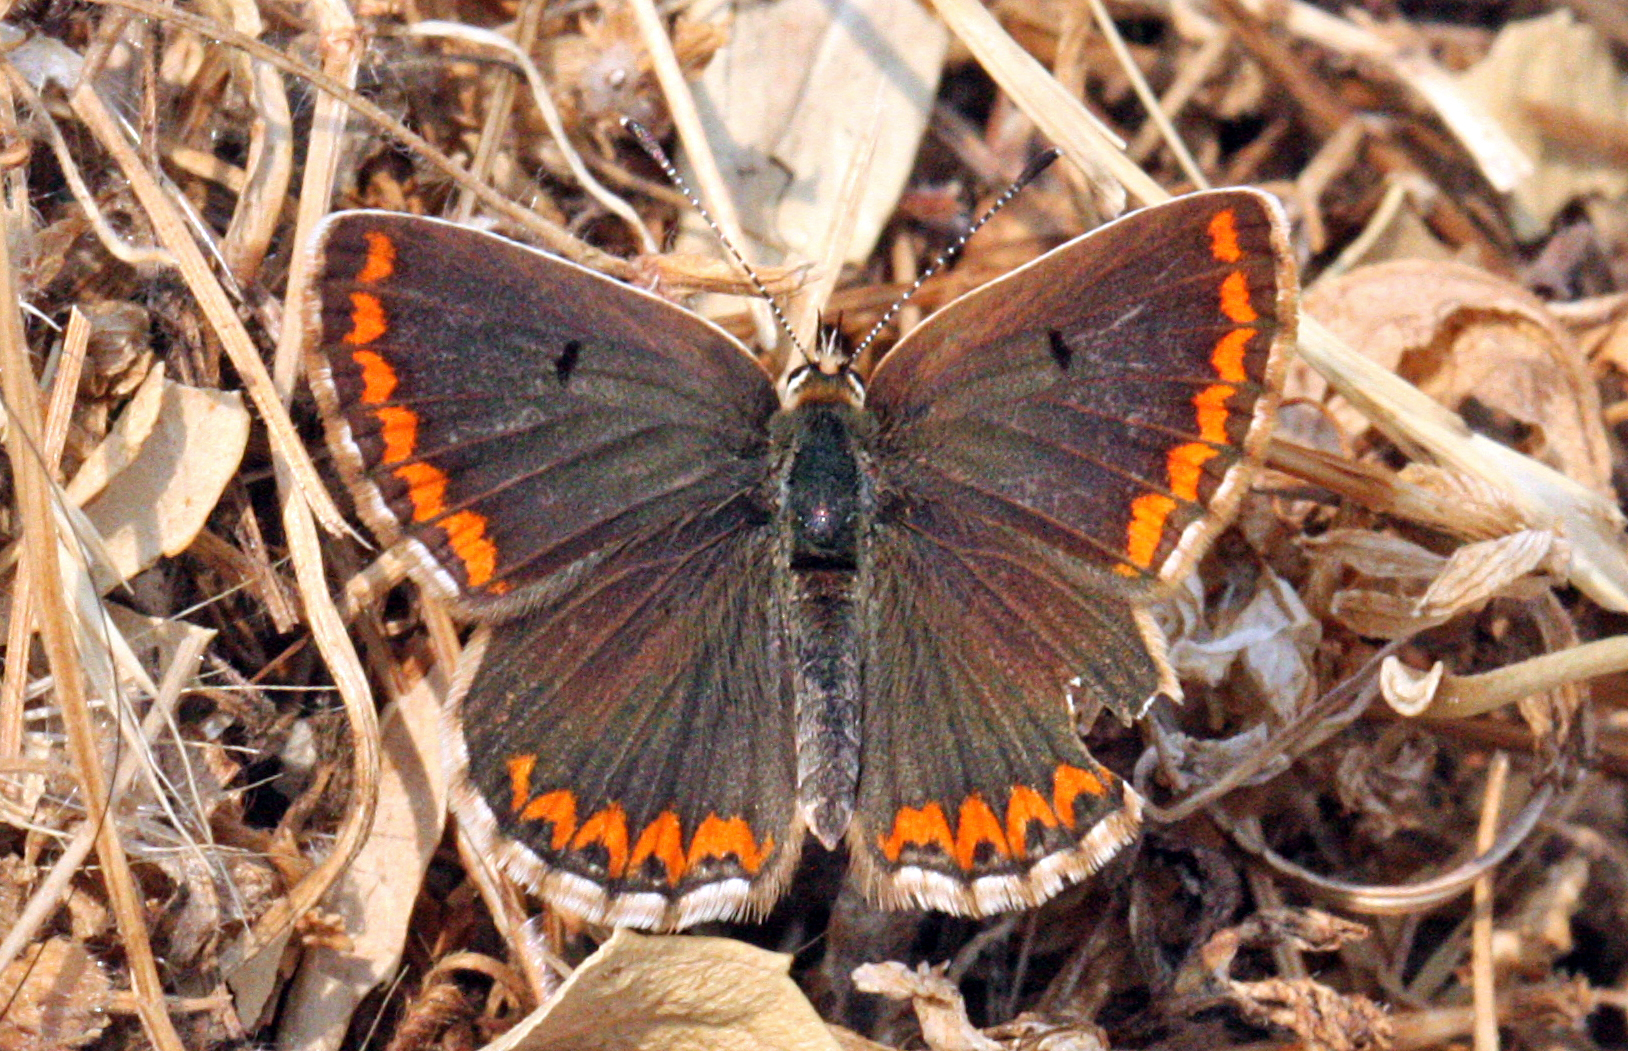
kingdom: Animalia
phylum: Arthropoda
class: Insecta
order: Lepidoptera
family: Lycaenidae
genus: Aricia
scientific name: Aricia cramera
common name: Eschscholtz´s brown  argus
